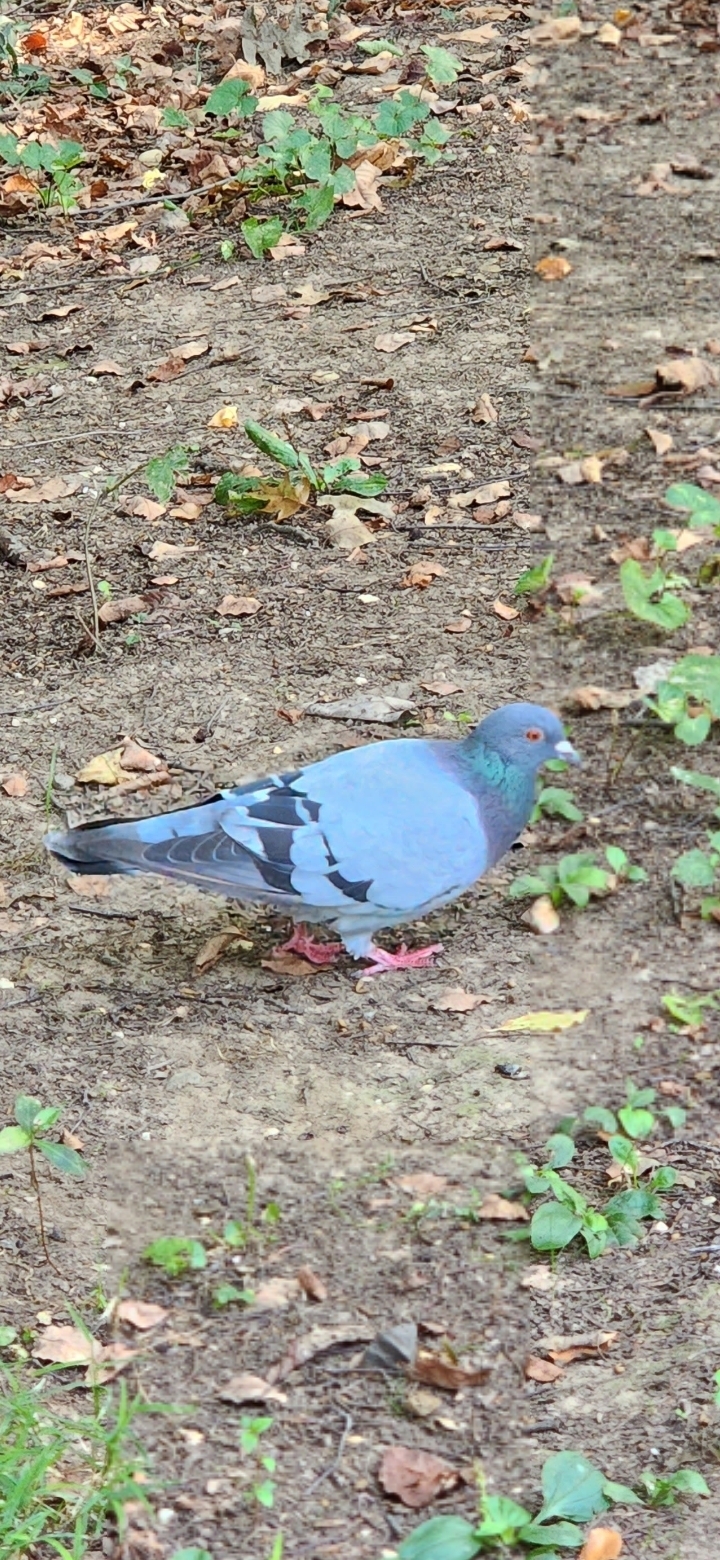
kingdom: Animalia
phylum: Chordata
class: Aves
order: Columbiformes
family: Columbidae
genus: Columba
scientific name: Columba livia
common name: Rock pigeon
